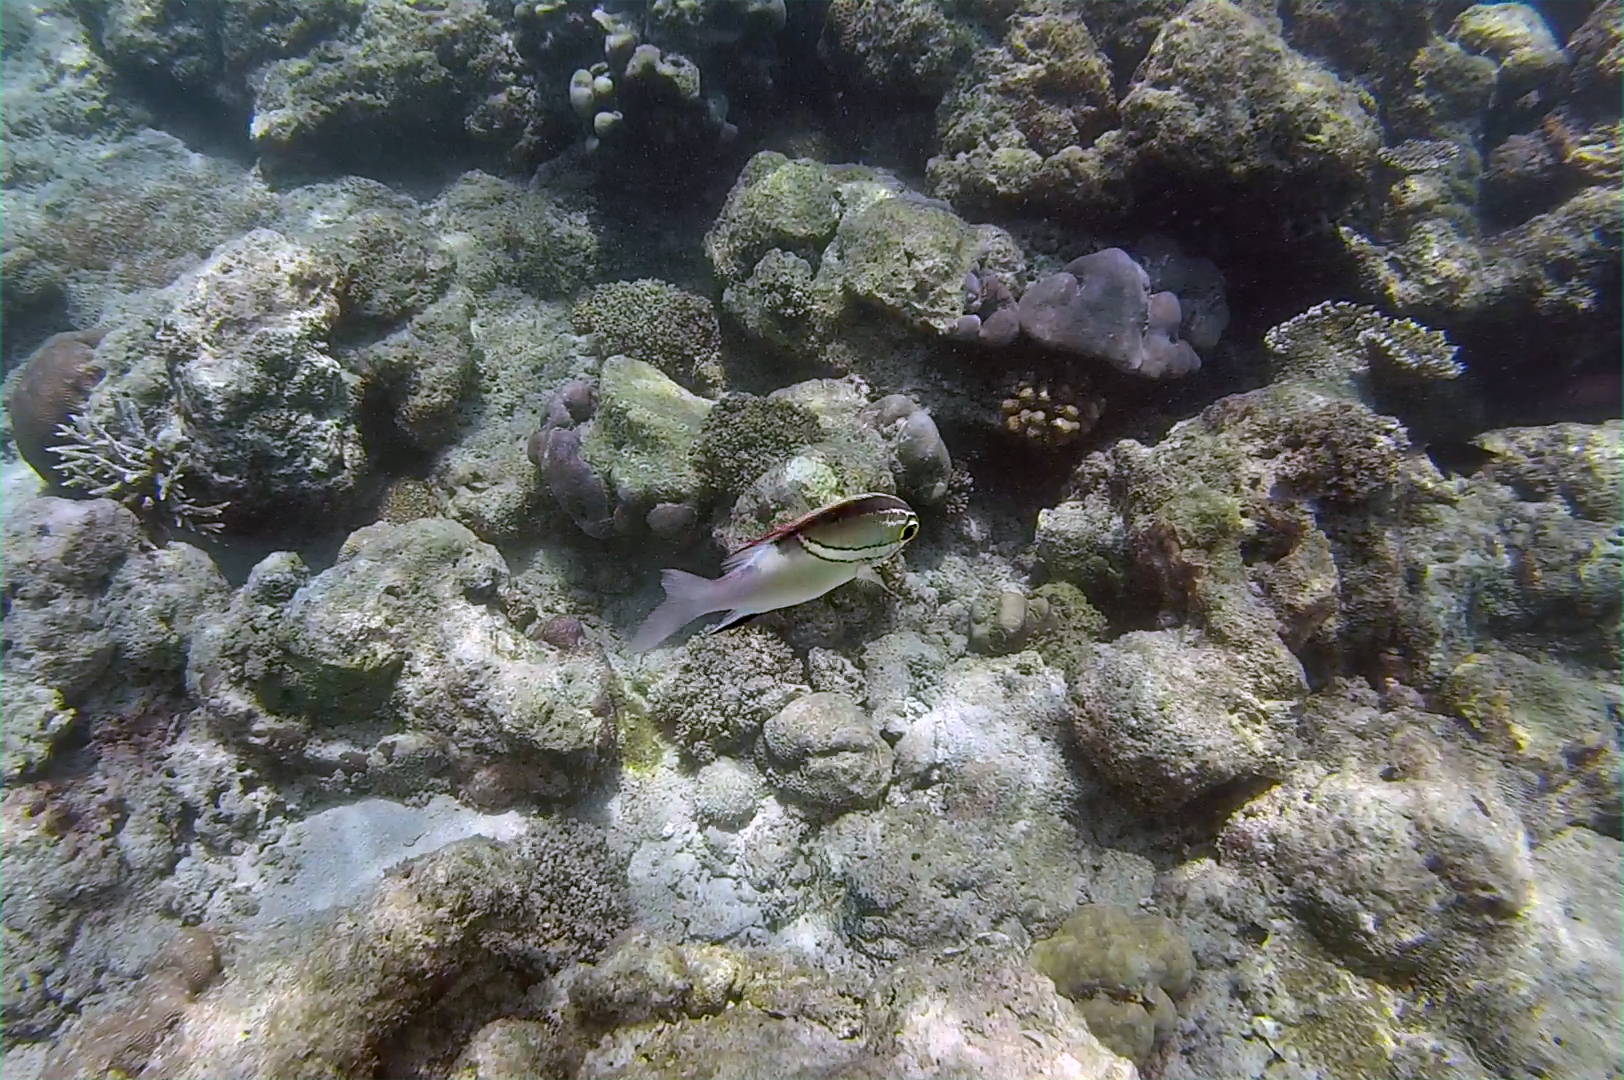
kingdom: Animalia
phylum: Chordata
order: Perciformes
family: Nemipteridae
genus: Scolopsis
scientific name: Scolopsis bilineata
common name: Two-lined monocle bream
